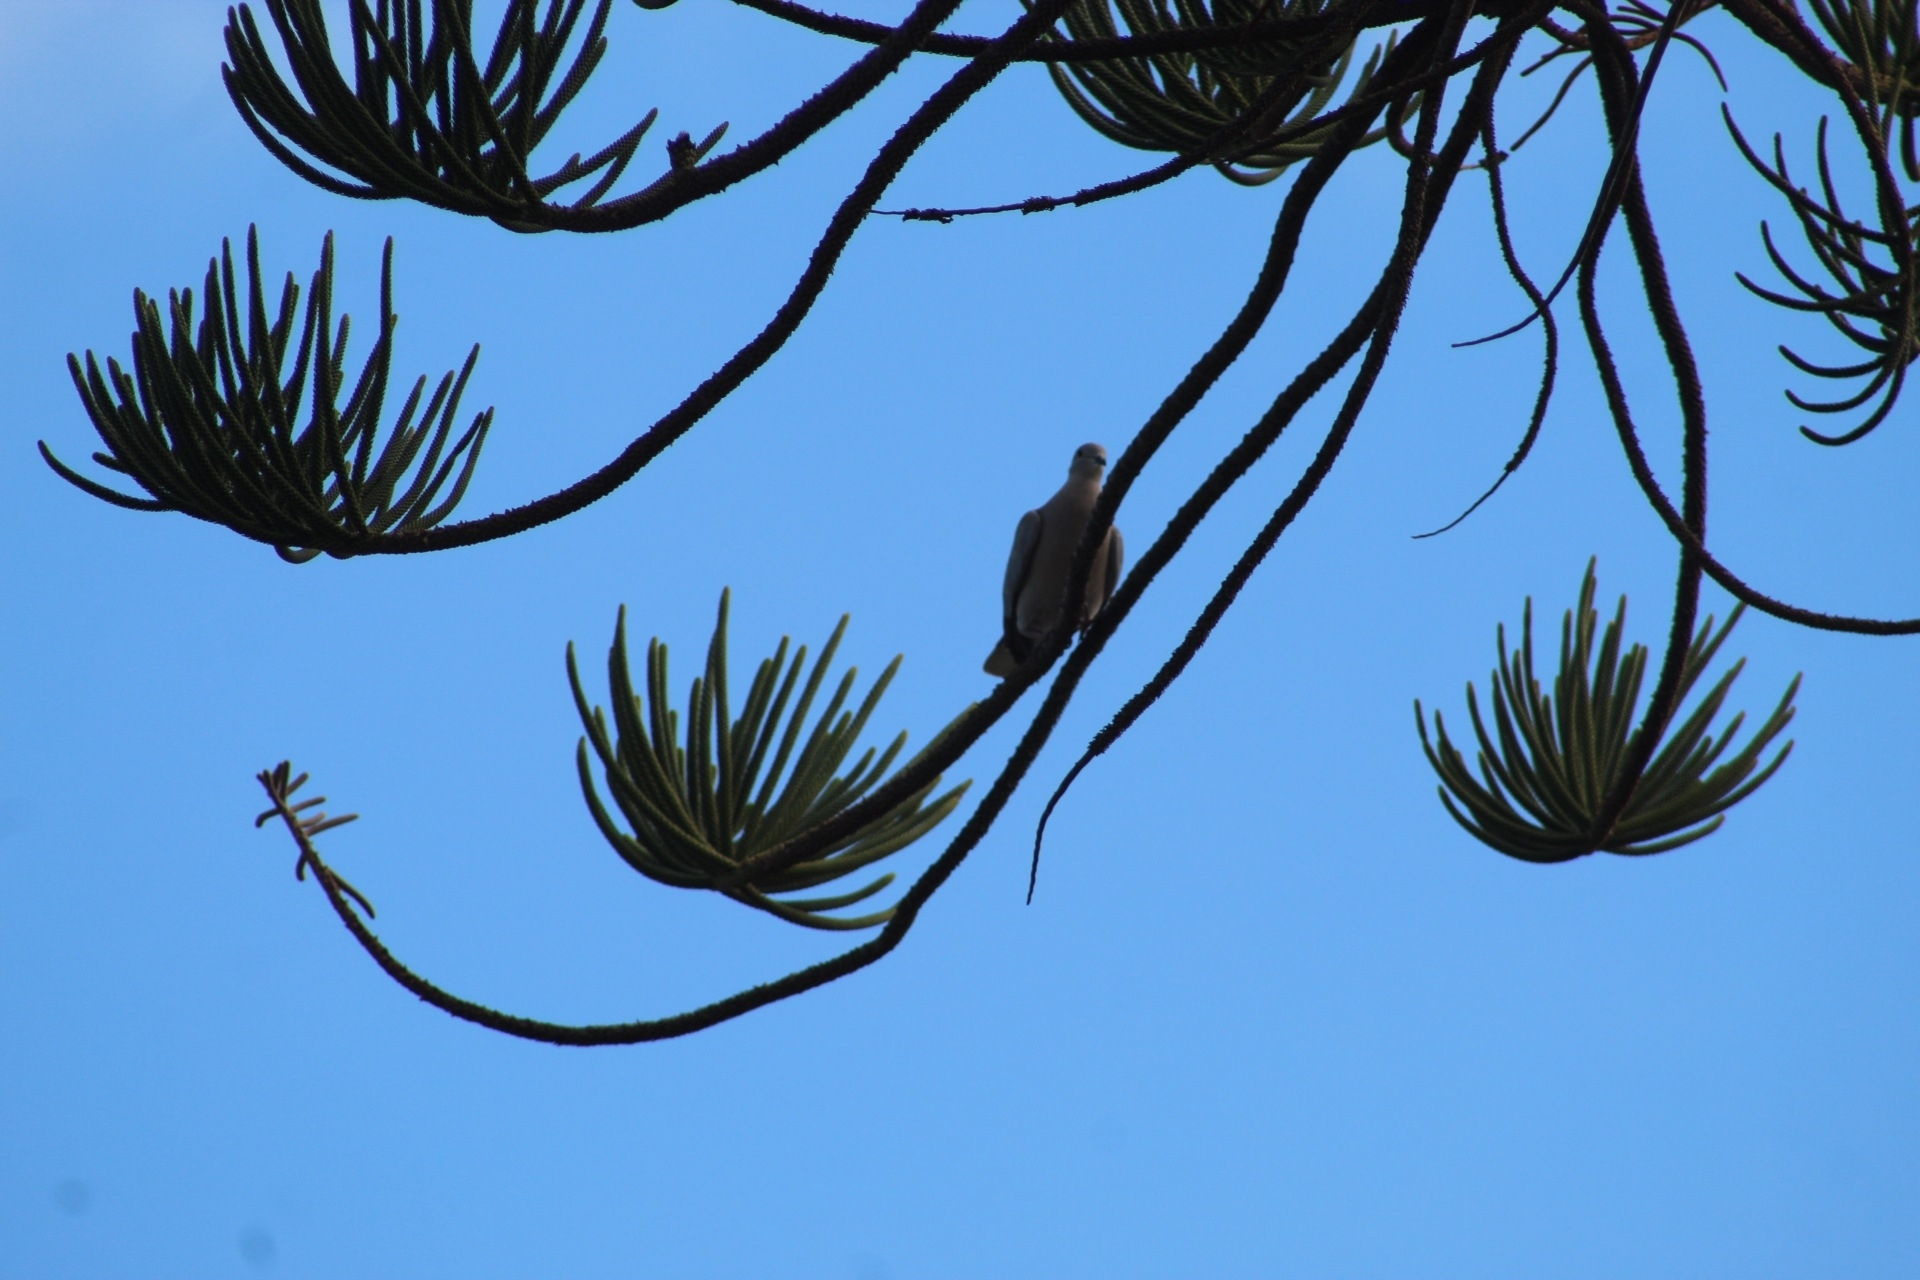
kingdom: Animalia
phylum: Chordata
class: Aves
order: Columbiformes
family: Columbidae
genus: Streptopelia
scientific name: Streptopelia decaocto
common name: Eurasian collared dove
